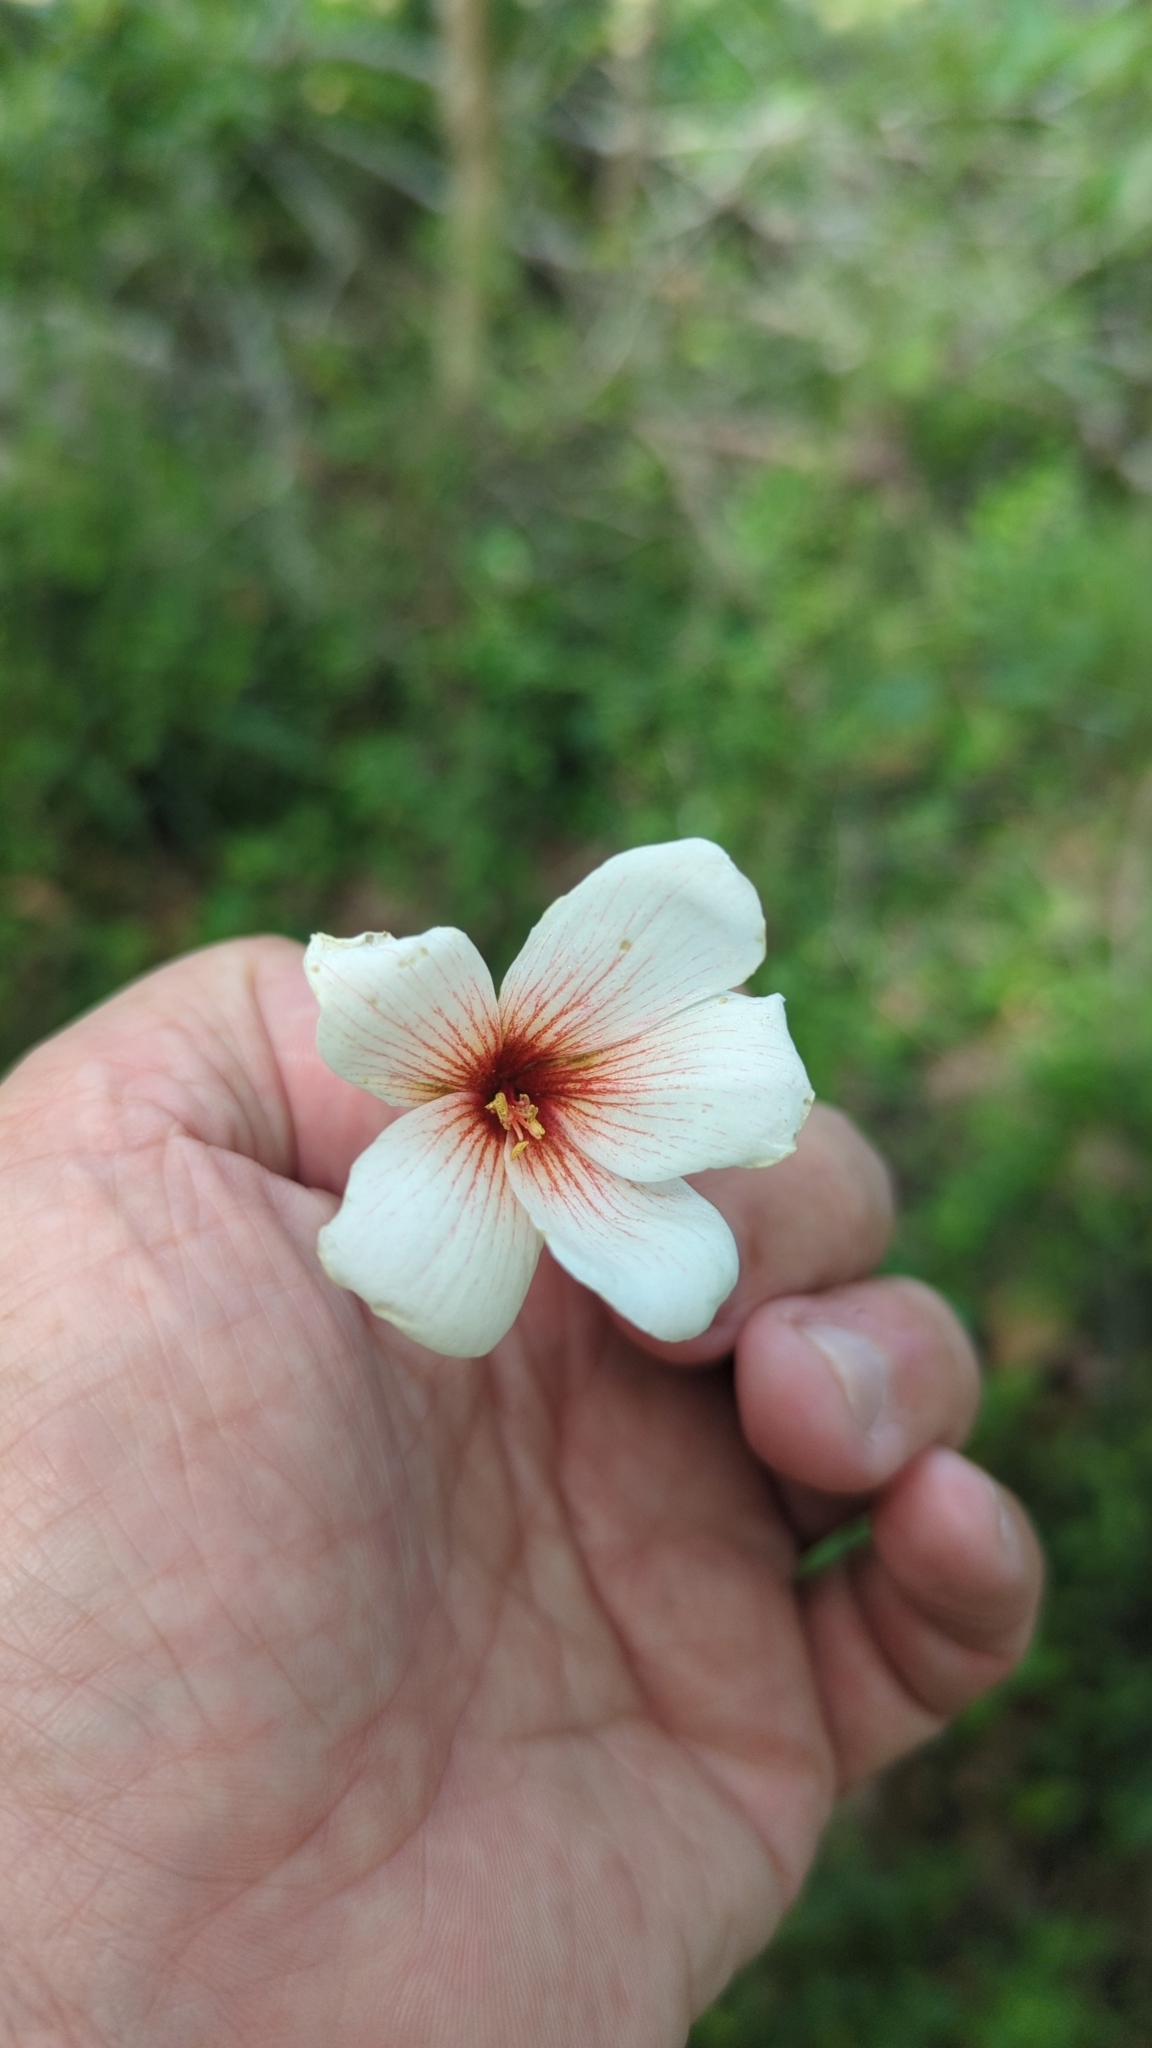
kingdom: Plantae
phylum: Tracheophyta
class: Magnoliopsida
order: Malpighiales
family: Euphorbiaceae
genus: Vernicia
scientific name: Vernicia fordii
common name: Tungoil tree
